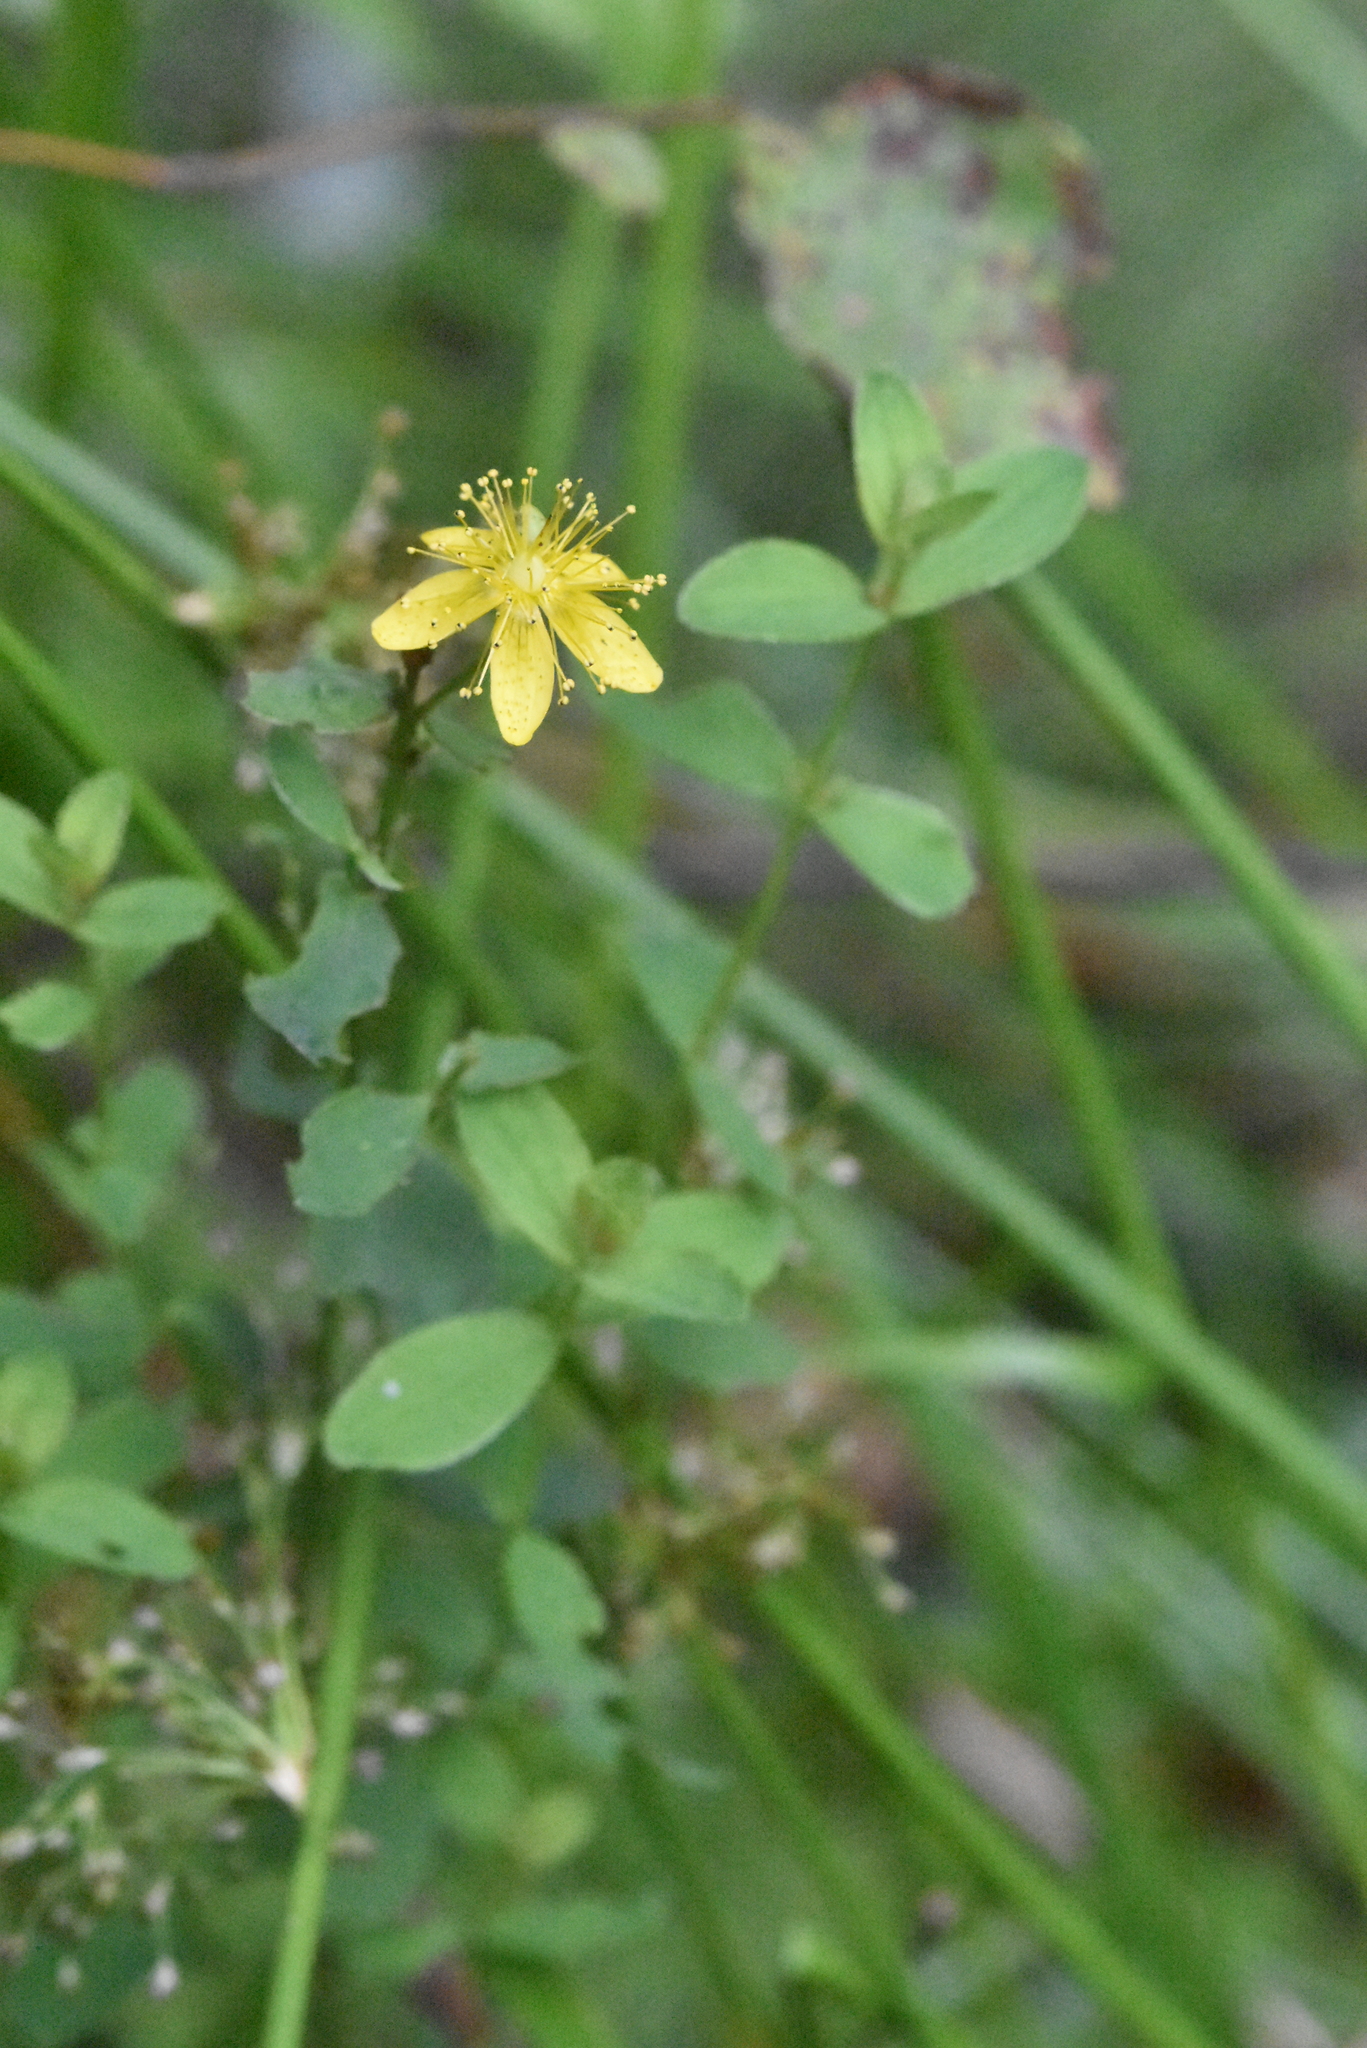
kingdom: Plantae
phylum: Tracheophyta
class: Magnoliopsida
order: Malpighiales
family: Hypericaceae
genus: Hypericum
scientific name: Hypericum maculatum
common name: Imperforate st. john's-wort
